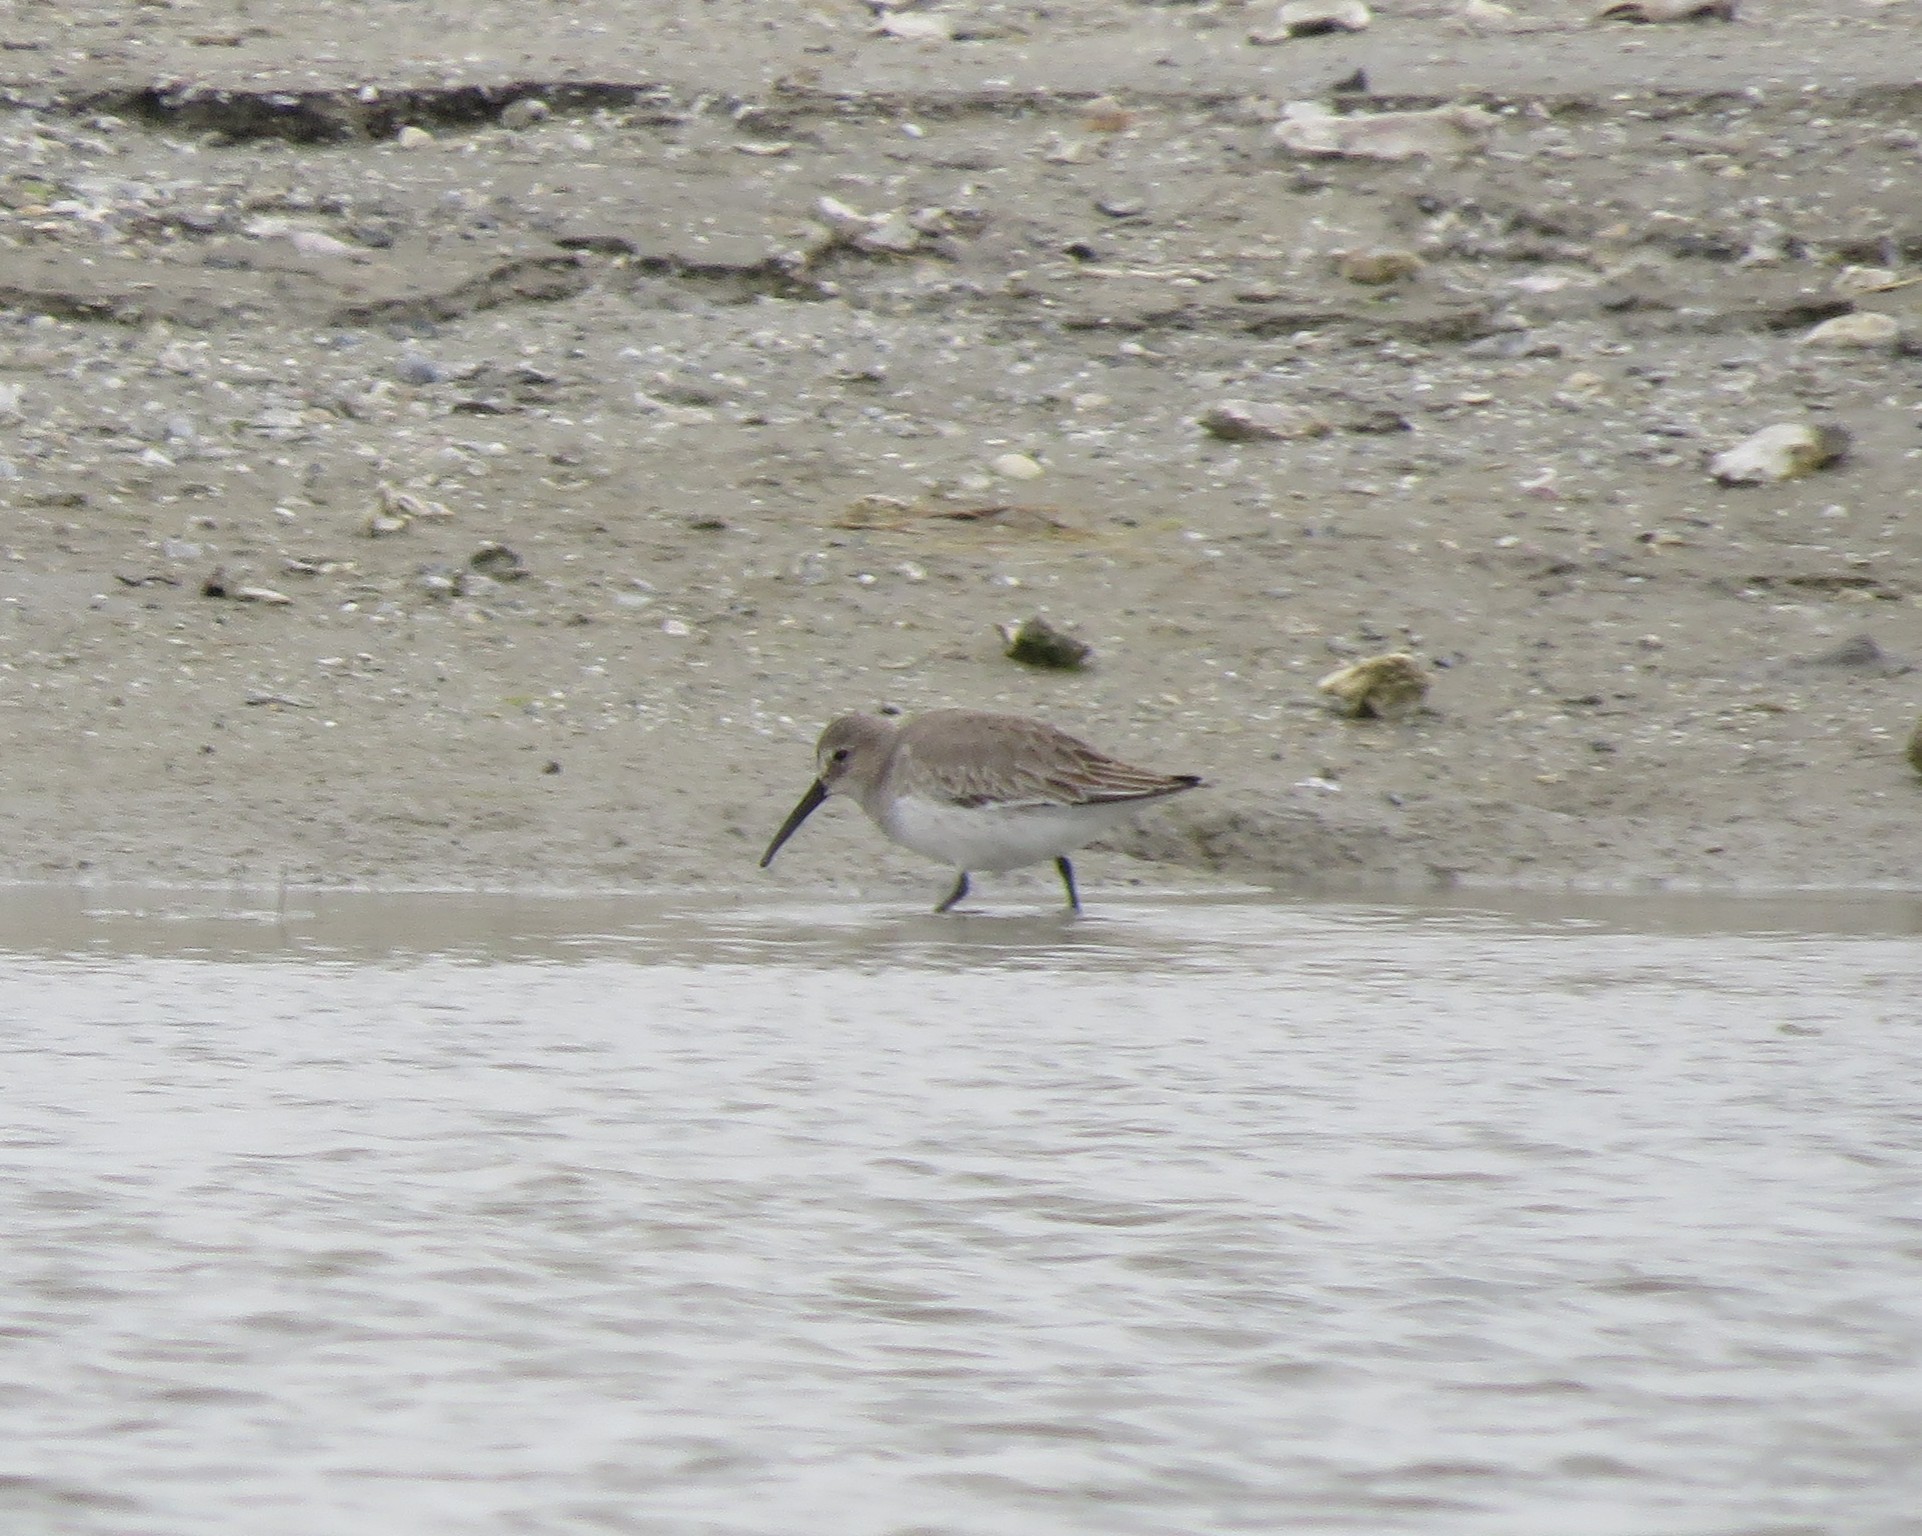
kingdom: Animalia
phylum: Chordata
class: Aves
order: Charadriiformes
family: Scolopacidae
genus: Calidris
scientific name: Calidris alpina
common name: Dunlin
